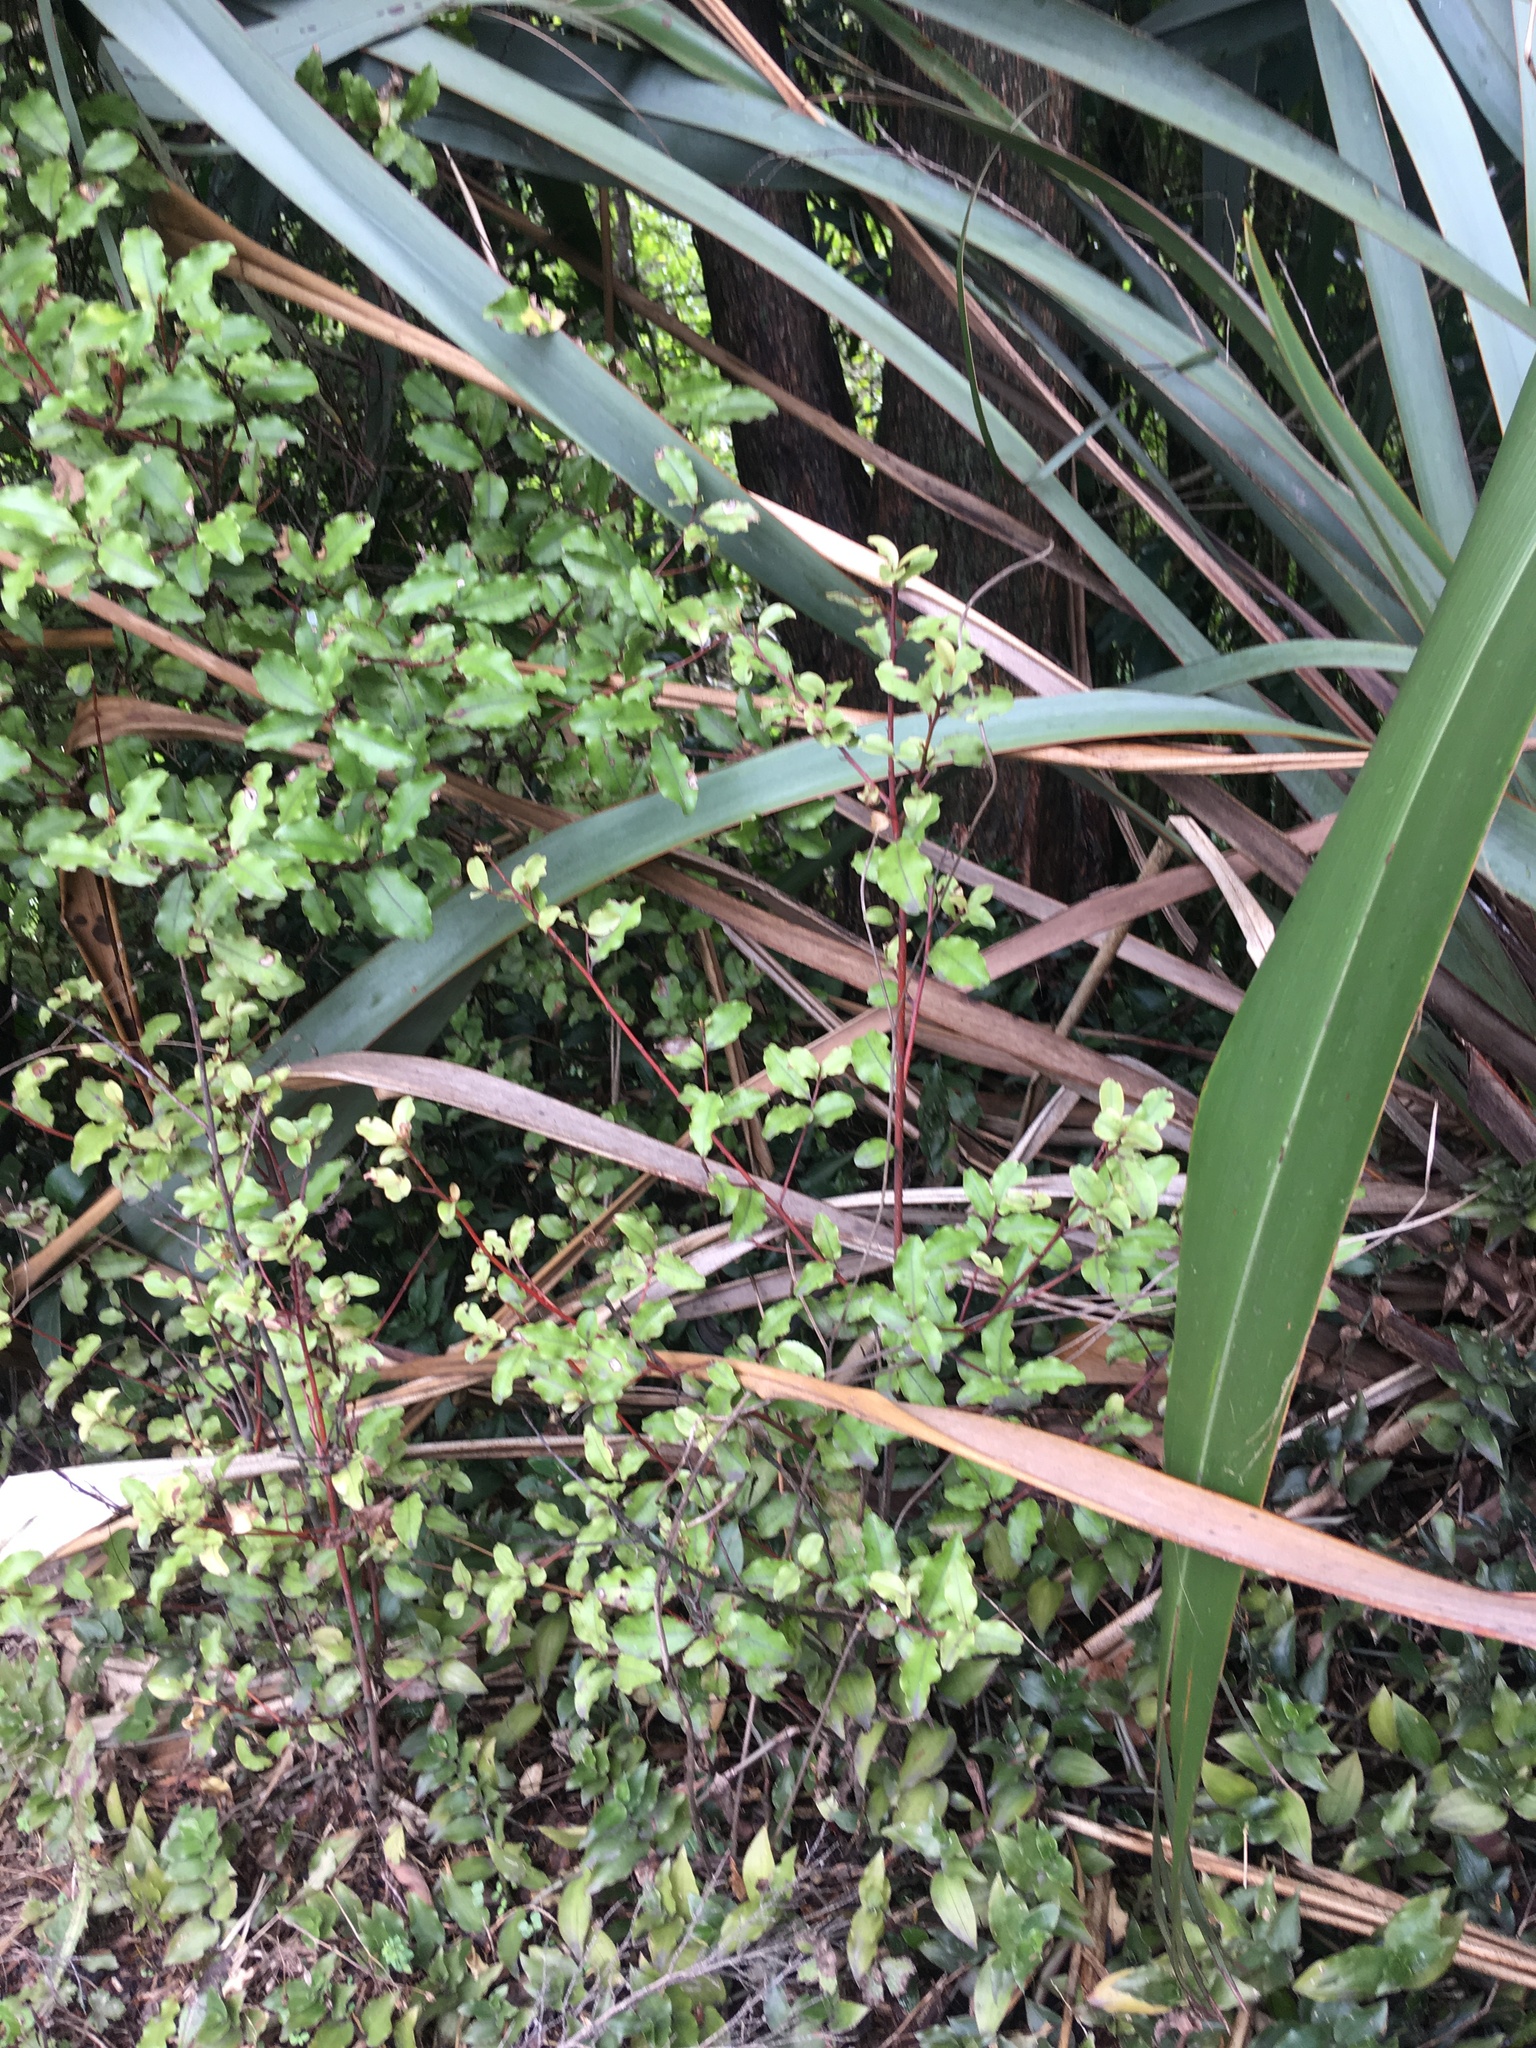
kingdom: Plantae
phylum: Tracheophyta
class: Magnoliopsida
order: Ericales
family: Primulaceae
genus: Myrsine
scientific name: Myrsine australis
